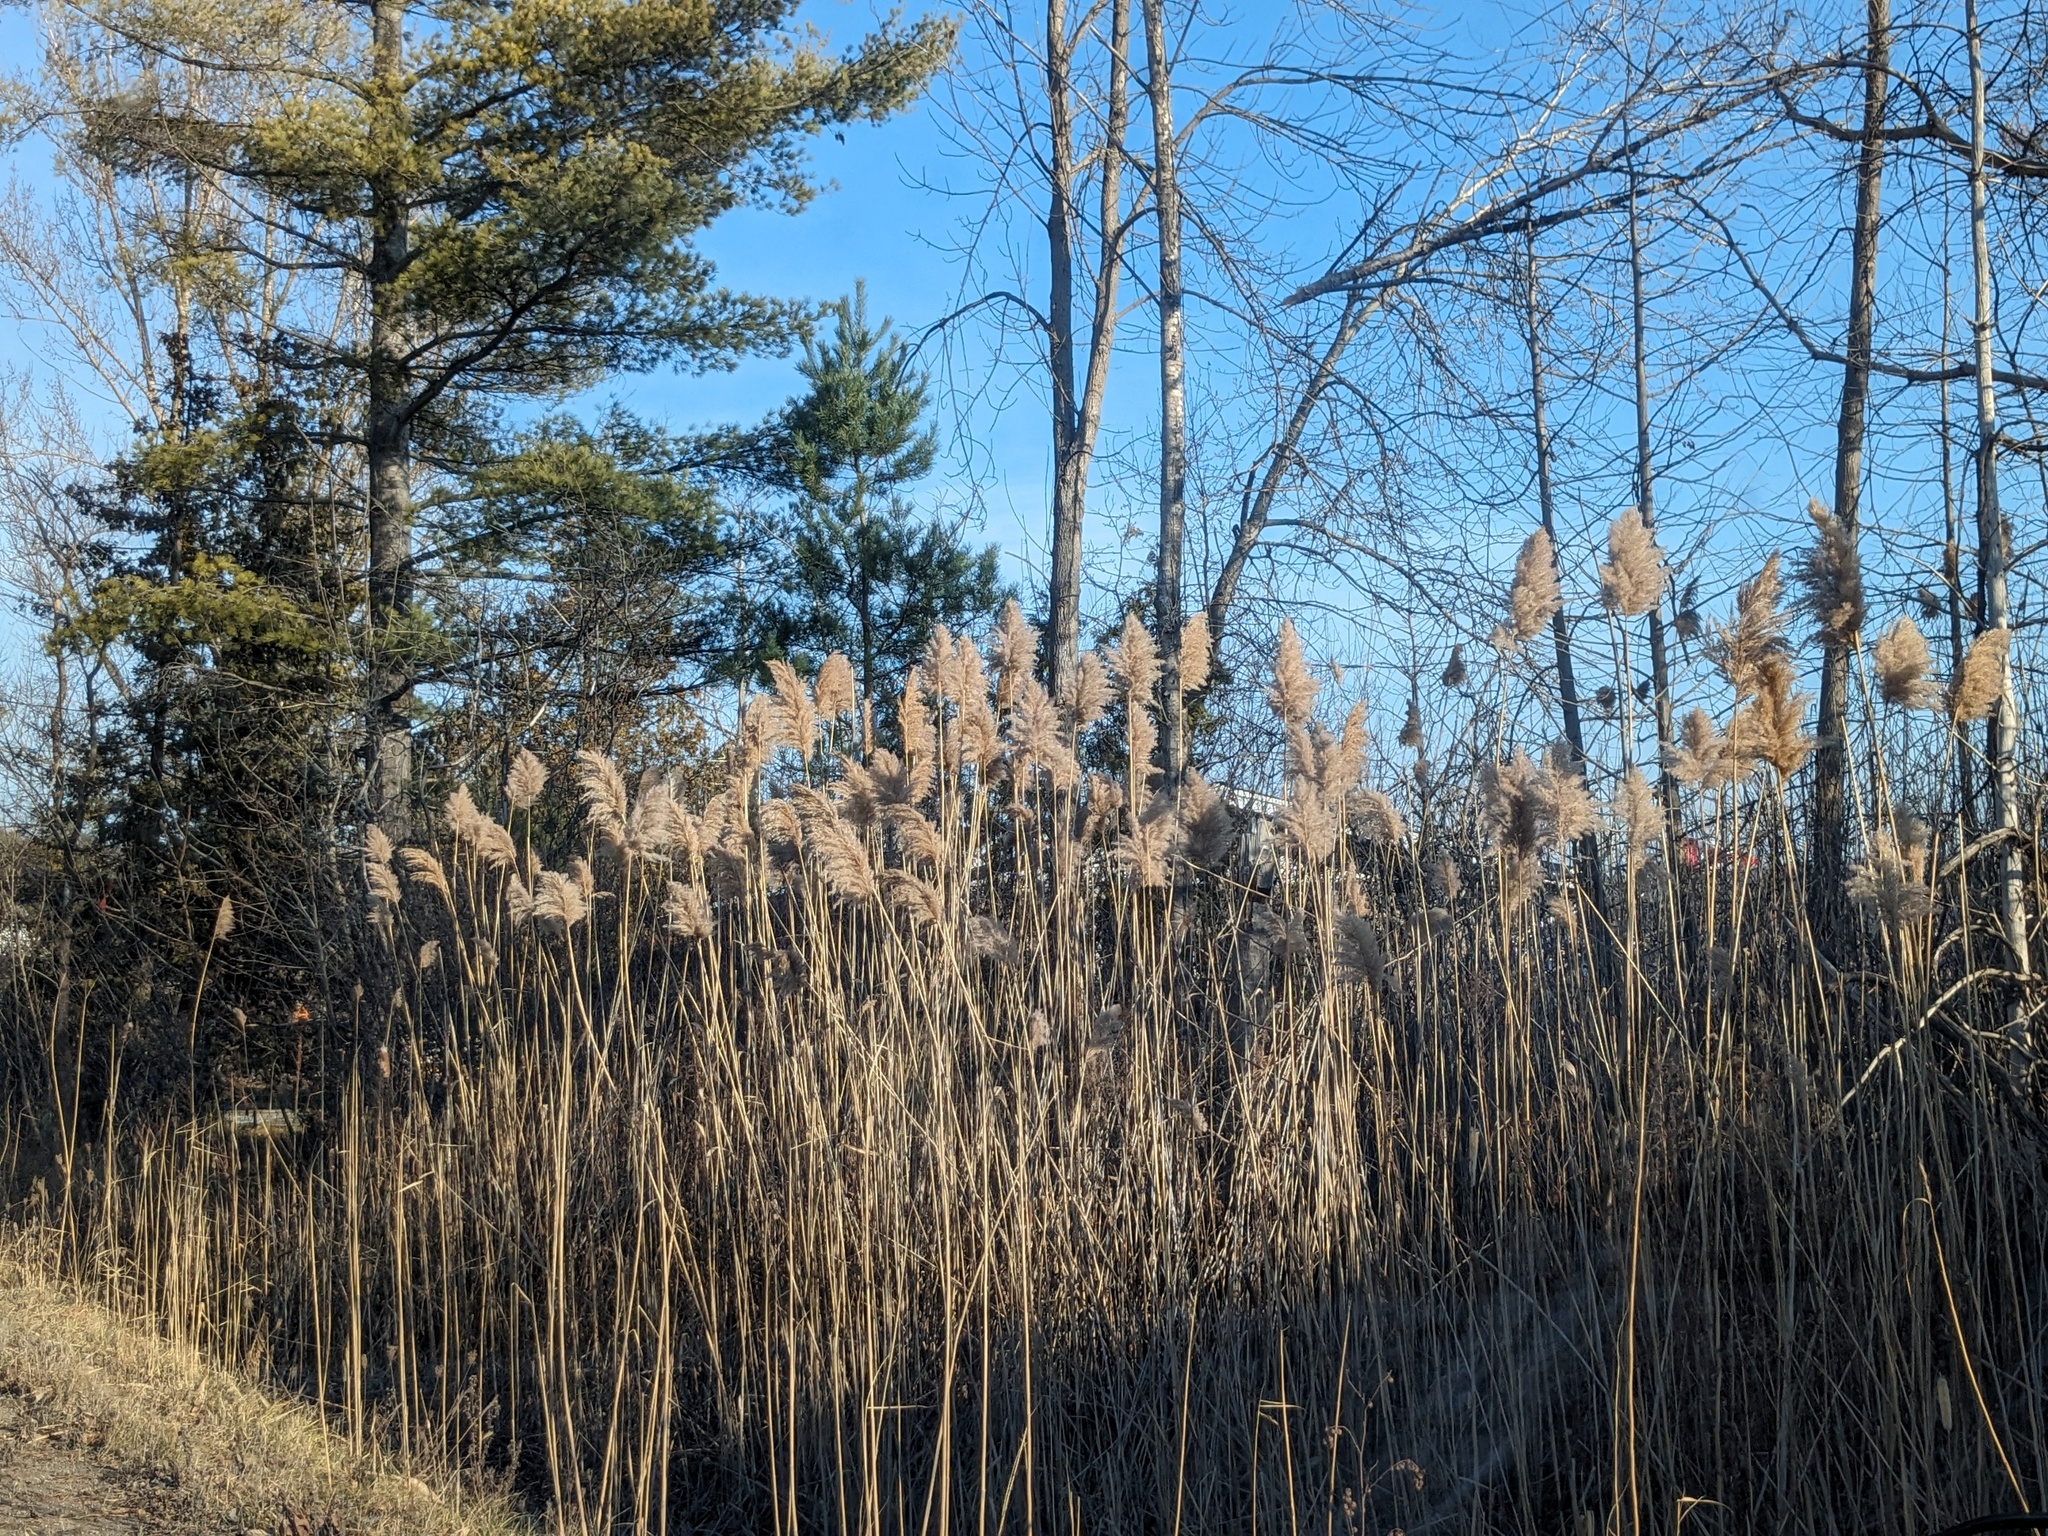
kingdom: Plantae
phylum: Tracheophyta
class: Liliopsida
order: Poales
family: Poaceae
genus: Phragmites
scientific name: Phragmites australis
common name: Common reed
